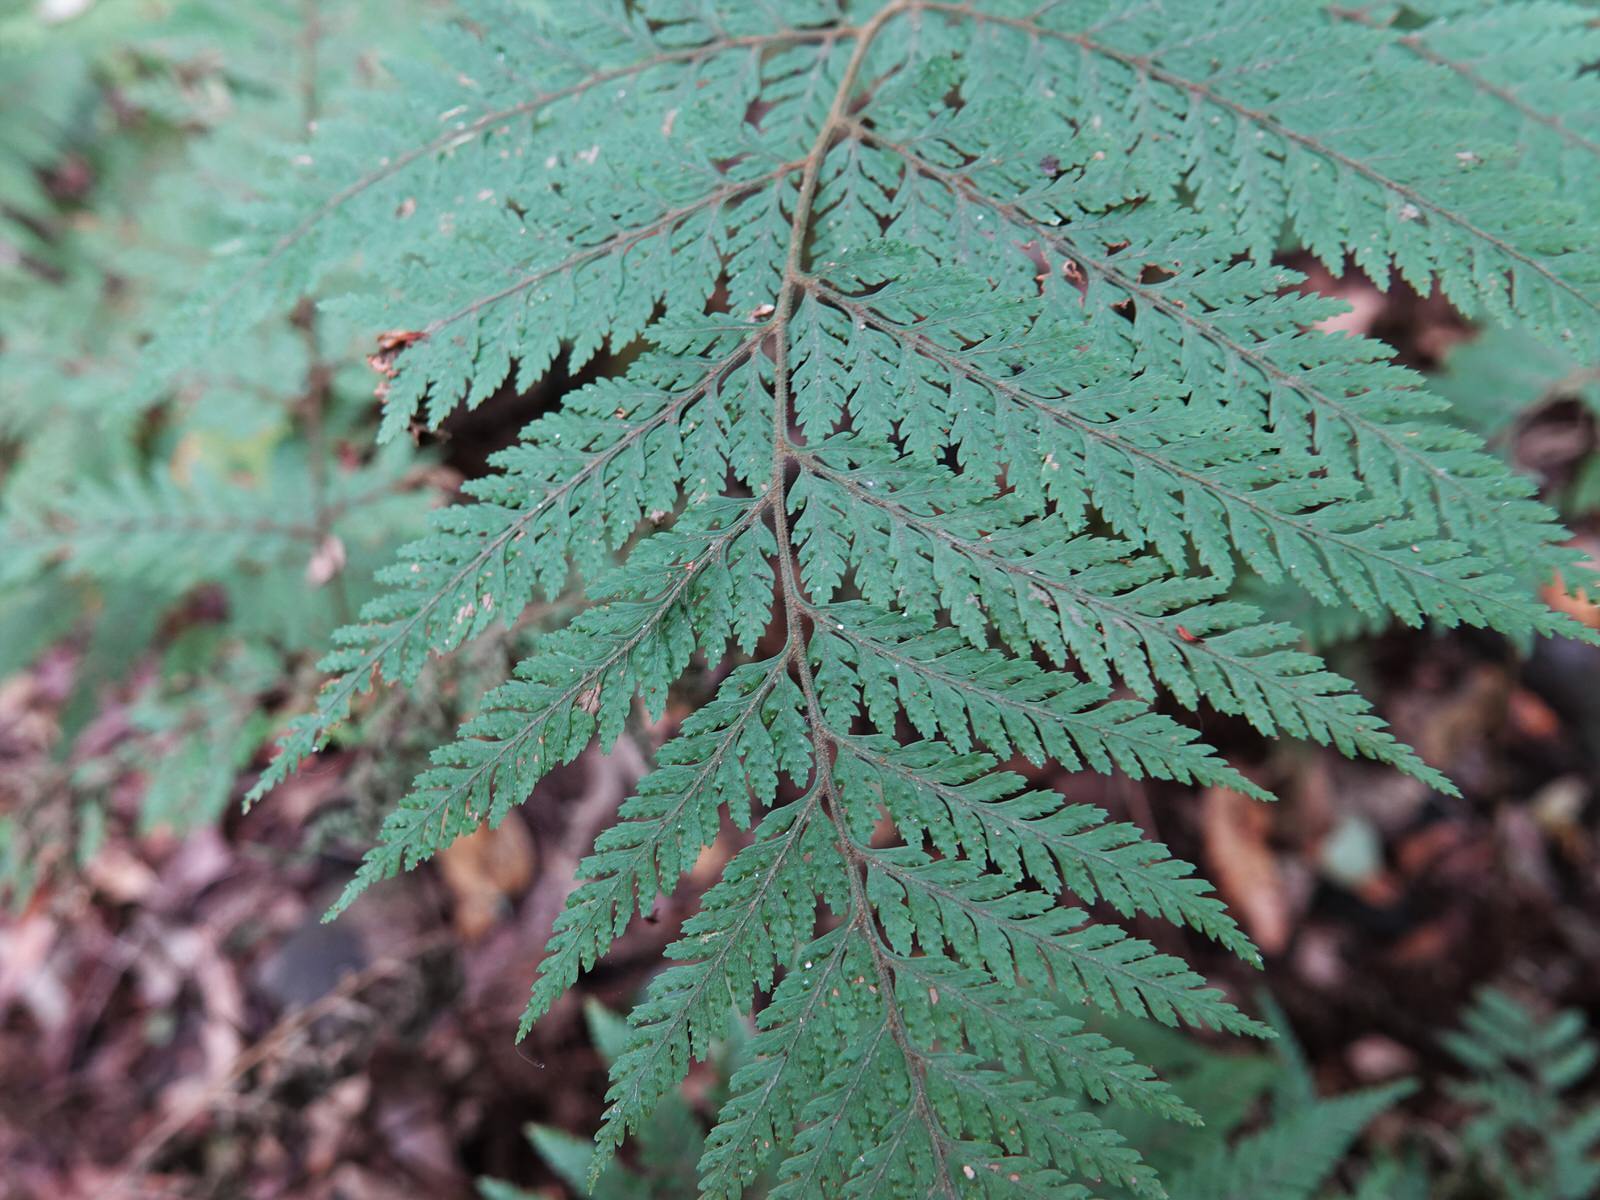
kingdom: Plantae
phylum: Tracheophyta
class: Polypodiopsida
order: Polypodiales
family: Dryopteridaceae
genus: Parapolystichum
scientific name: Parapolystichum microsorum
